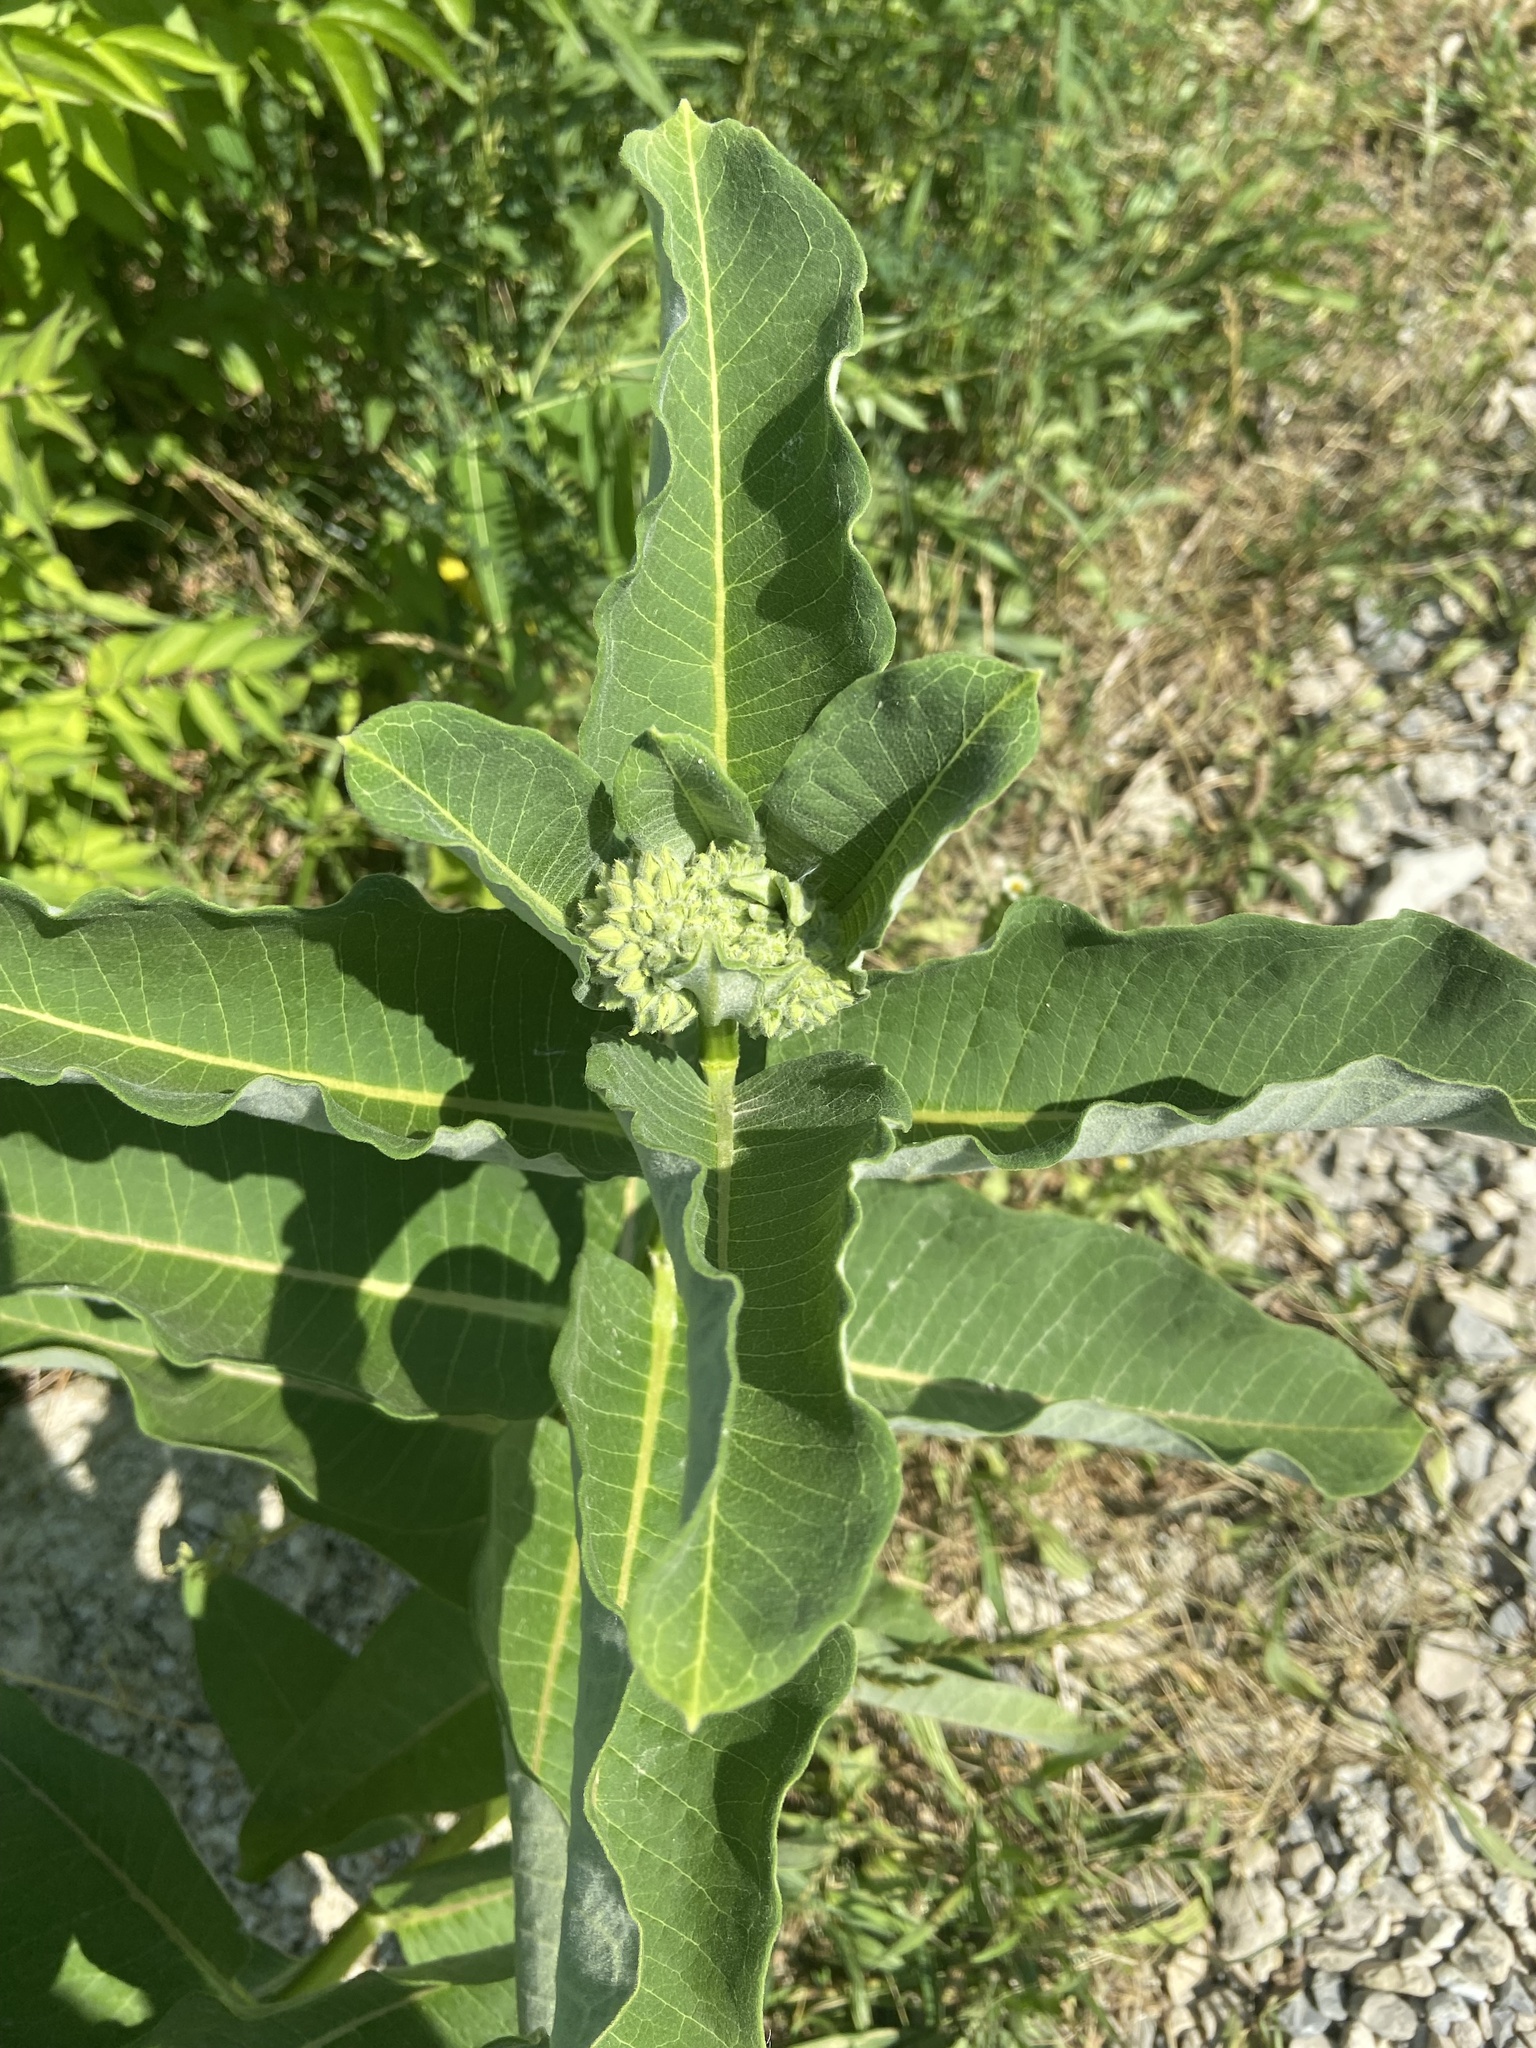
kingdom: Plantae
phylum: Tracheophyta
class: Magnoliopsida
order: Gentianales
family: Apocynaceae
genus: Asclepias
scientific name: Asclepias syriaca
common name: Common milkweed
